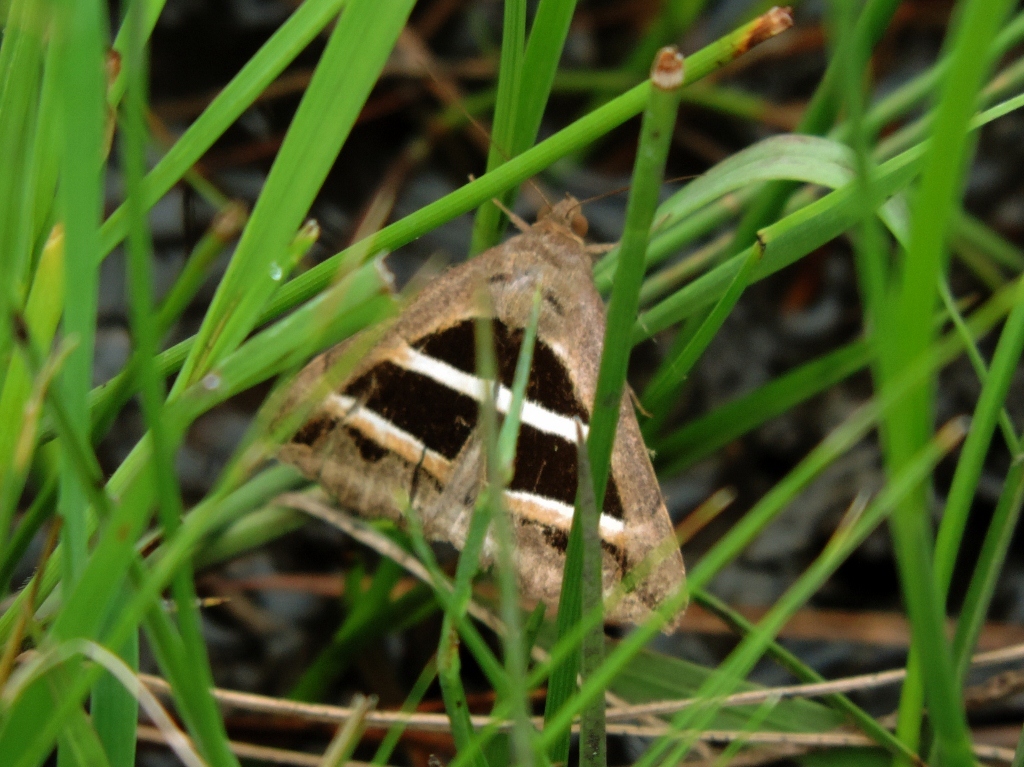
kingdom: Animalia
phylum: Arthropoda
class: Insecta
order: Lepidoptera
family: Erebidae
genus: Grammodes
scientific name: Grammodes bifasciata
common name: Parallel lines
